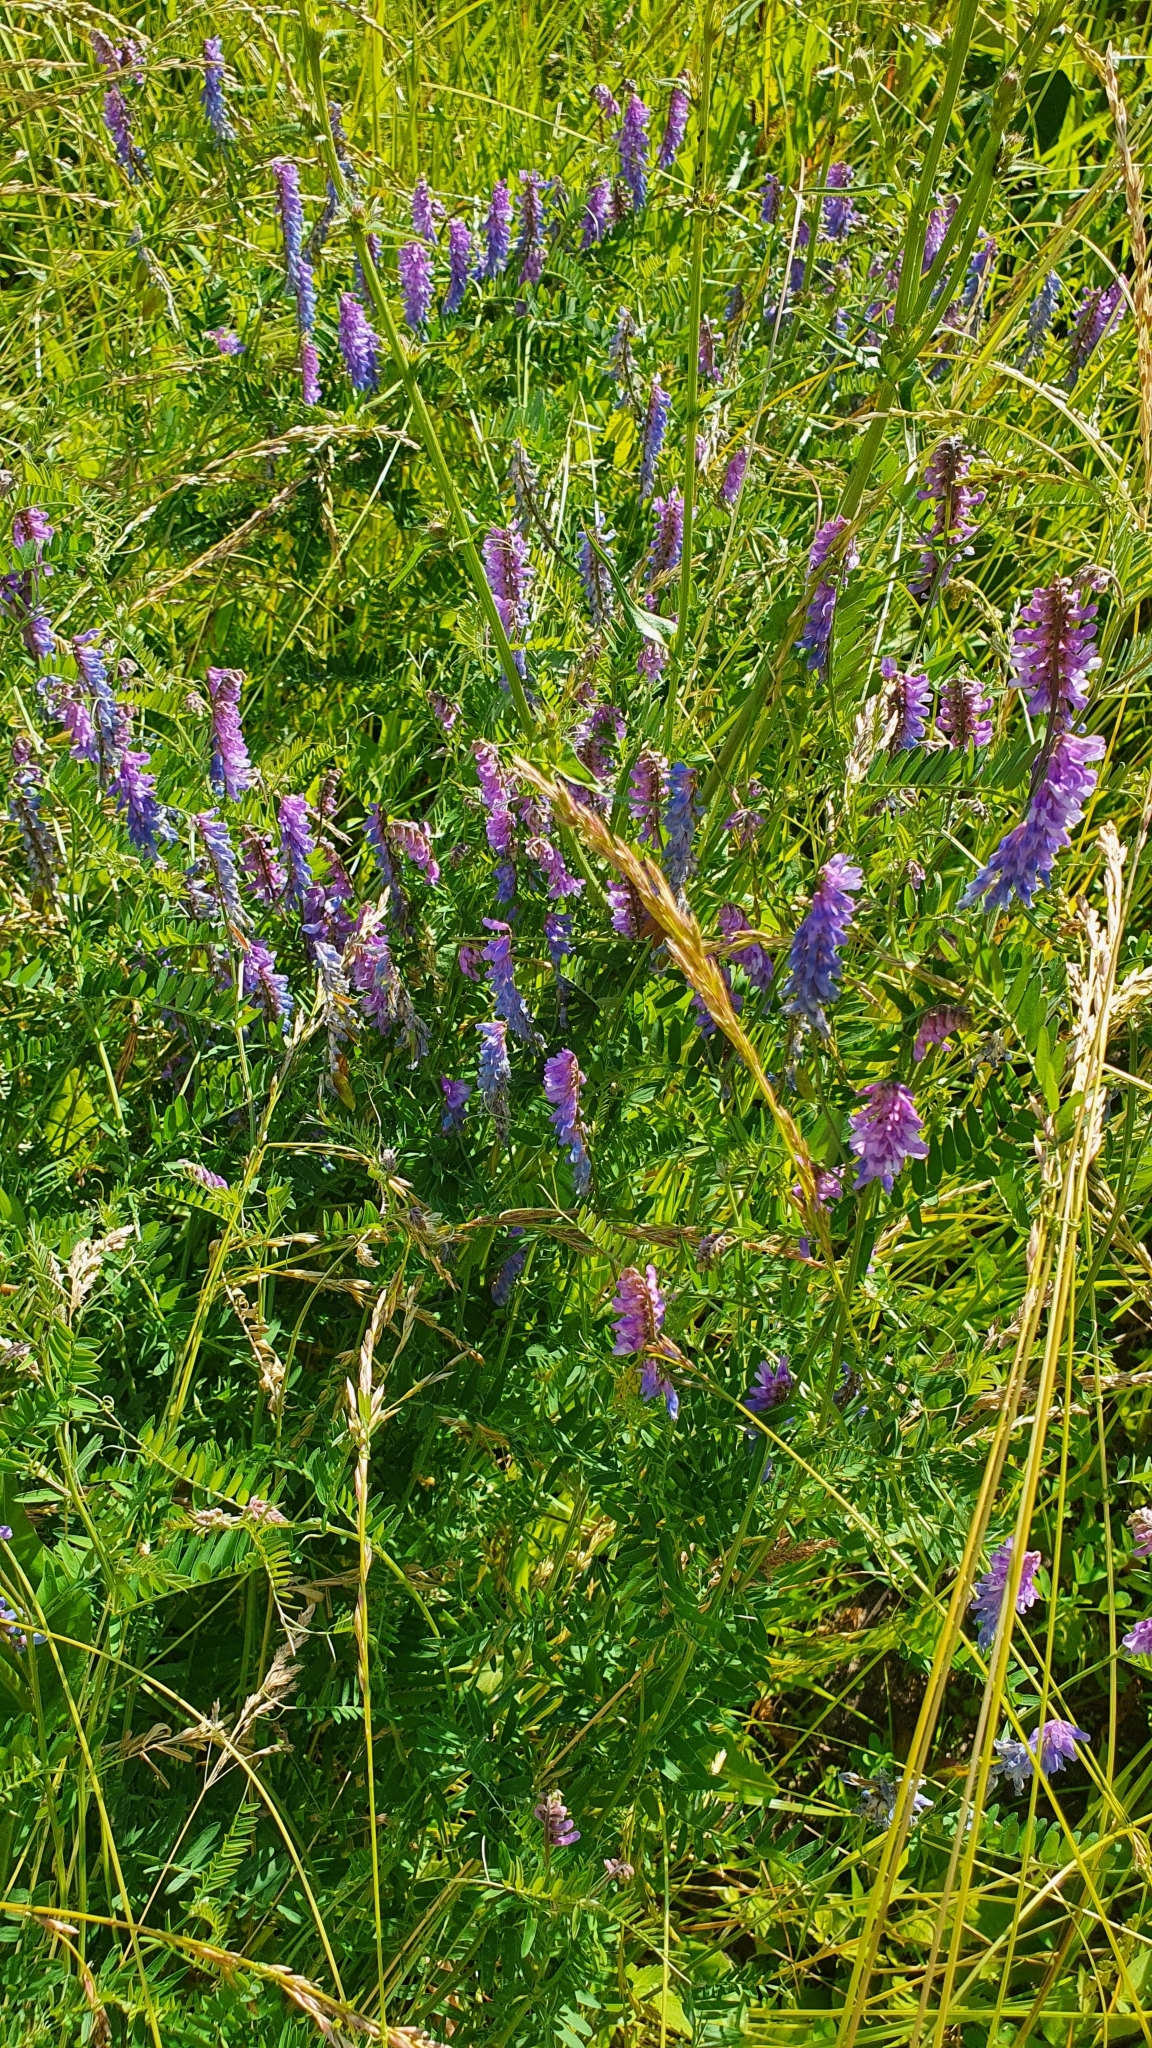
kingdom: Plantae
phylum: Tracheophyta
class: Magnoliopsida
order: Fabales
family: Fabaceae
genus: Vicia
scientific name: Vicia cracca
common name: Bird vetch
